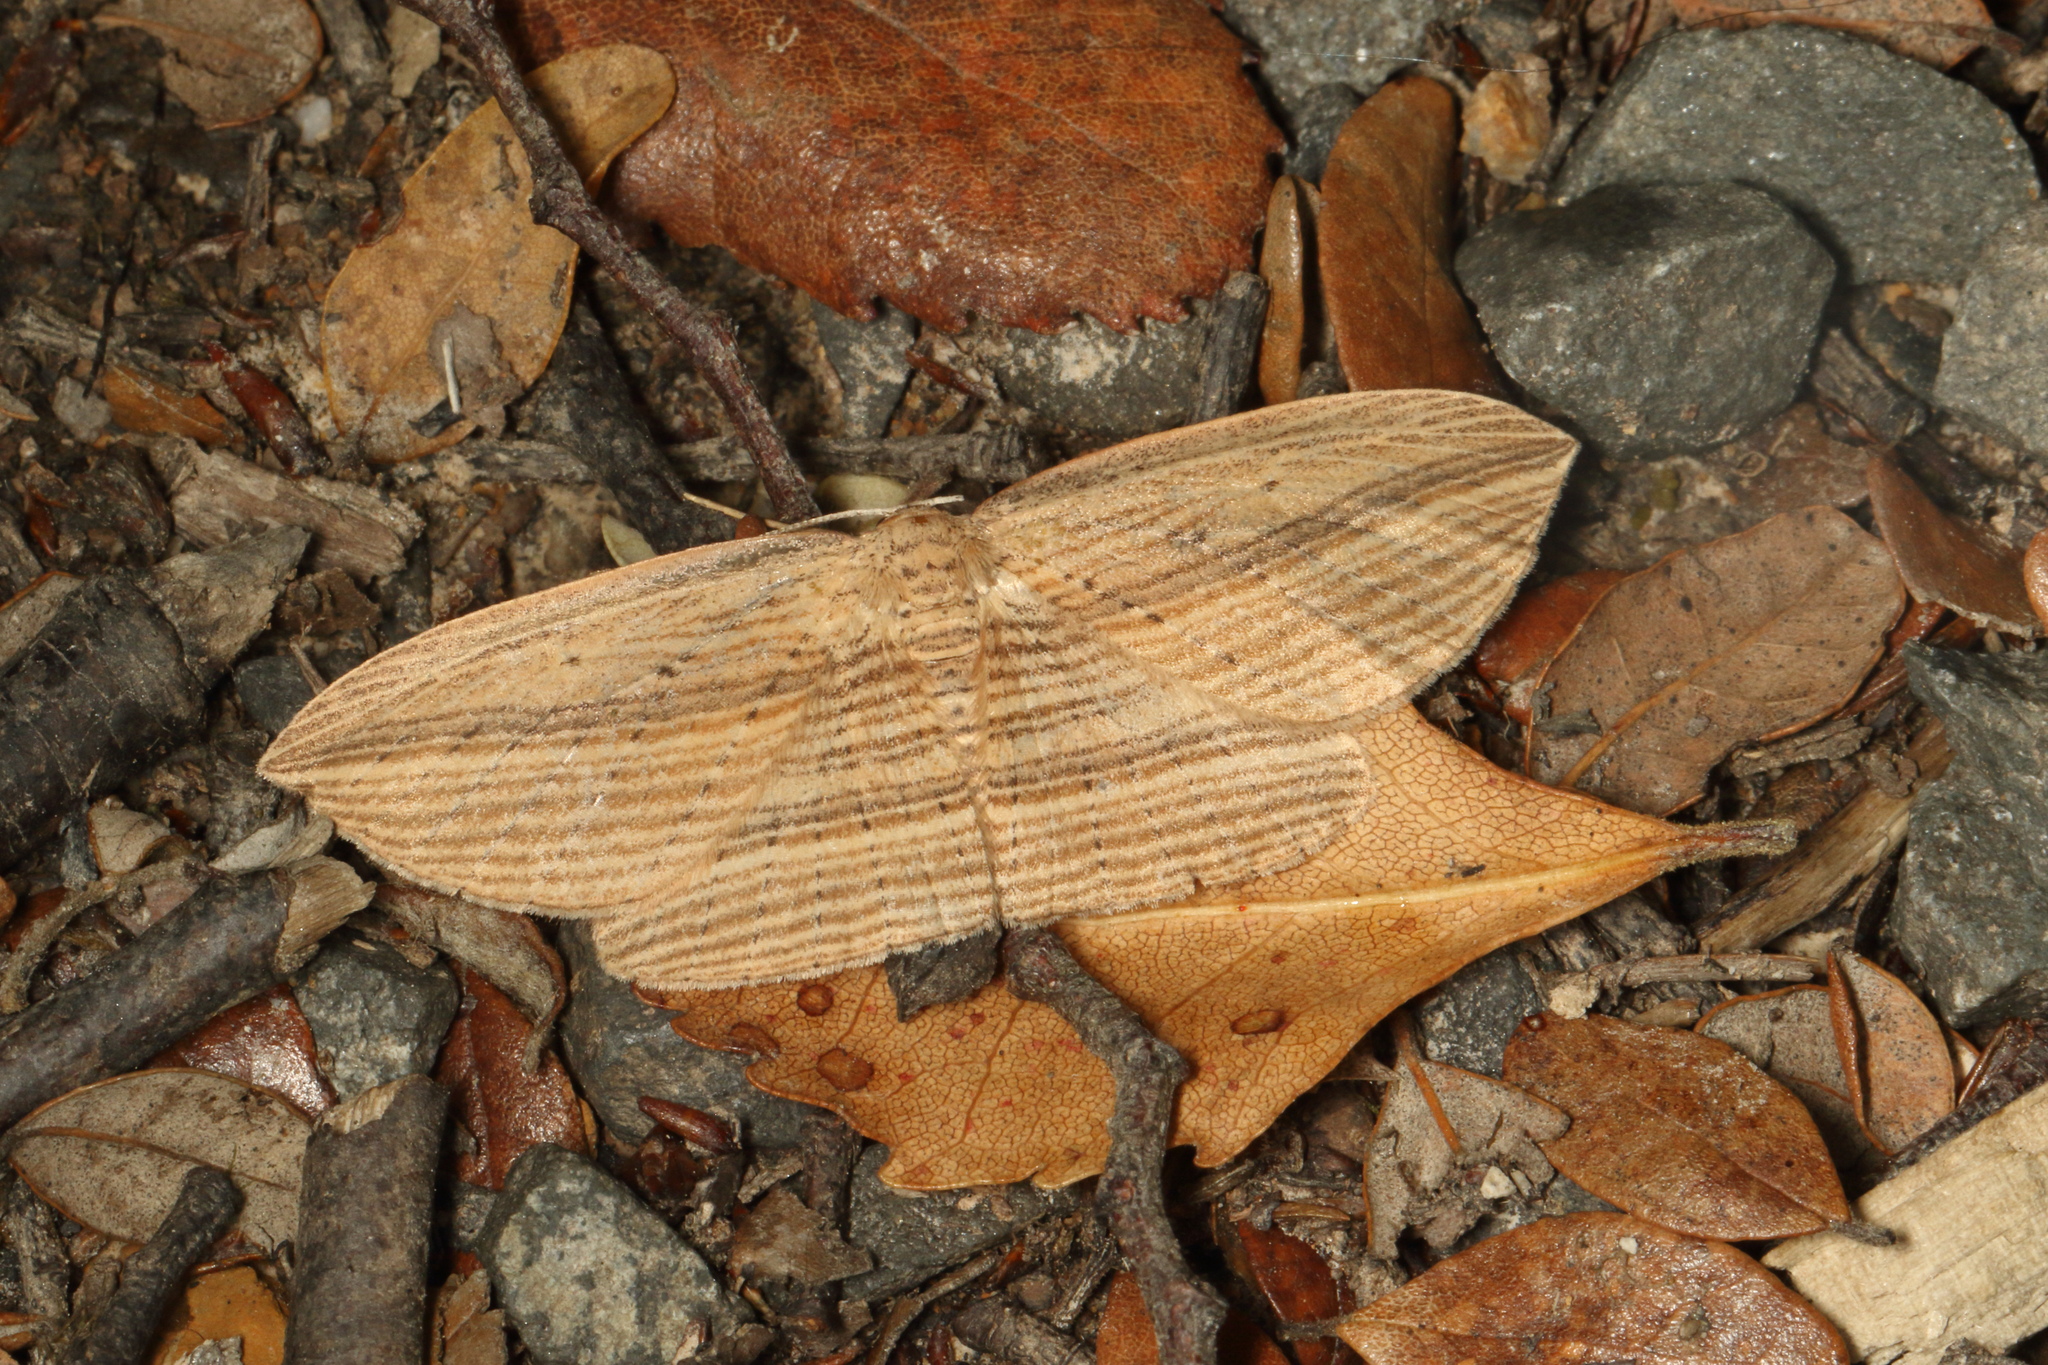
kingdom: Animalia
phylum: Arthropoda
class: Insecta
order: Lepidoptera
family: Geometridae
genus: Epiphryne
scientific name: Epiphryne verriculata
